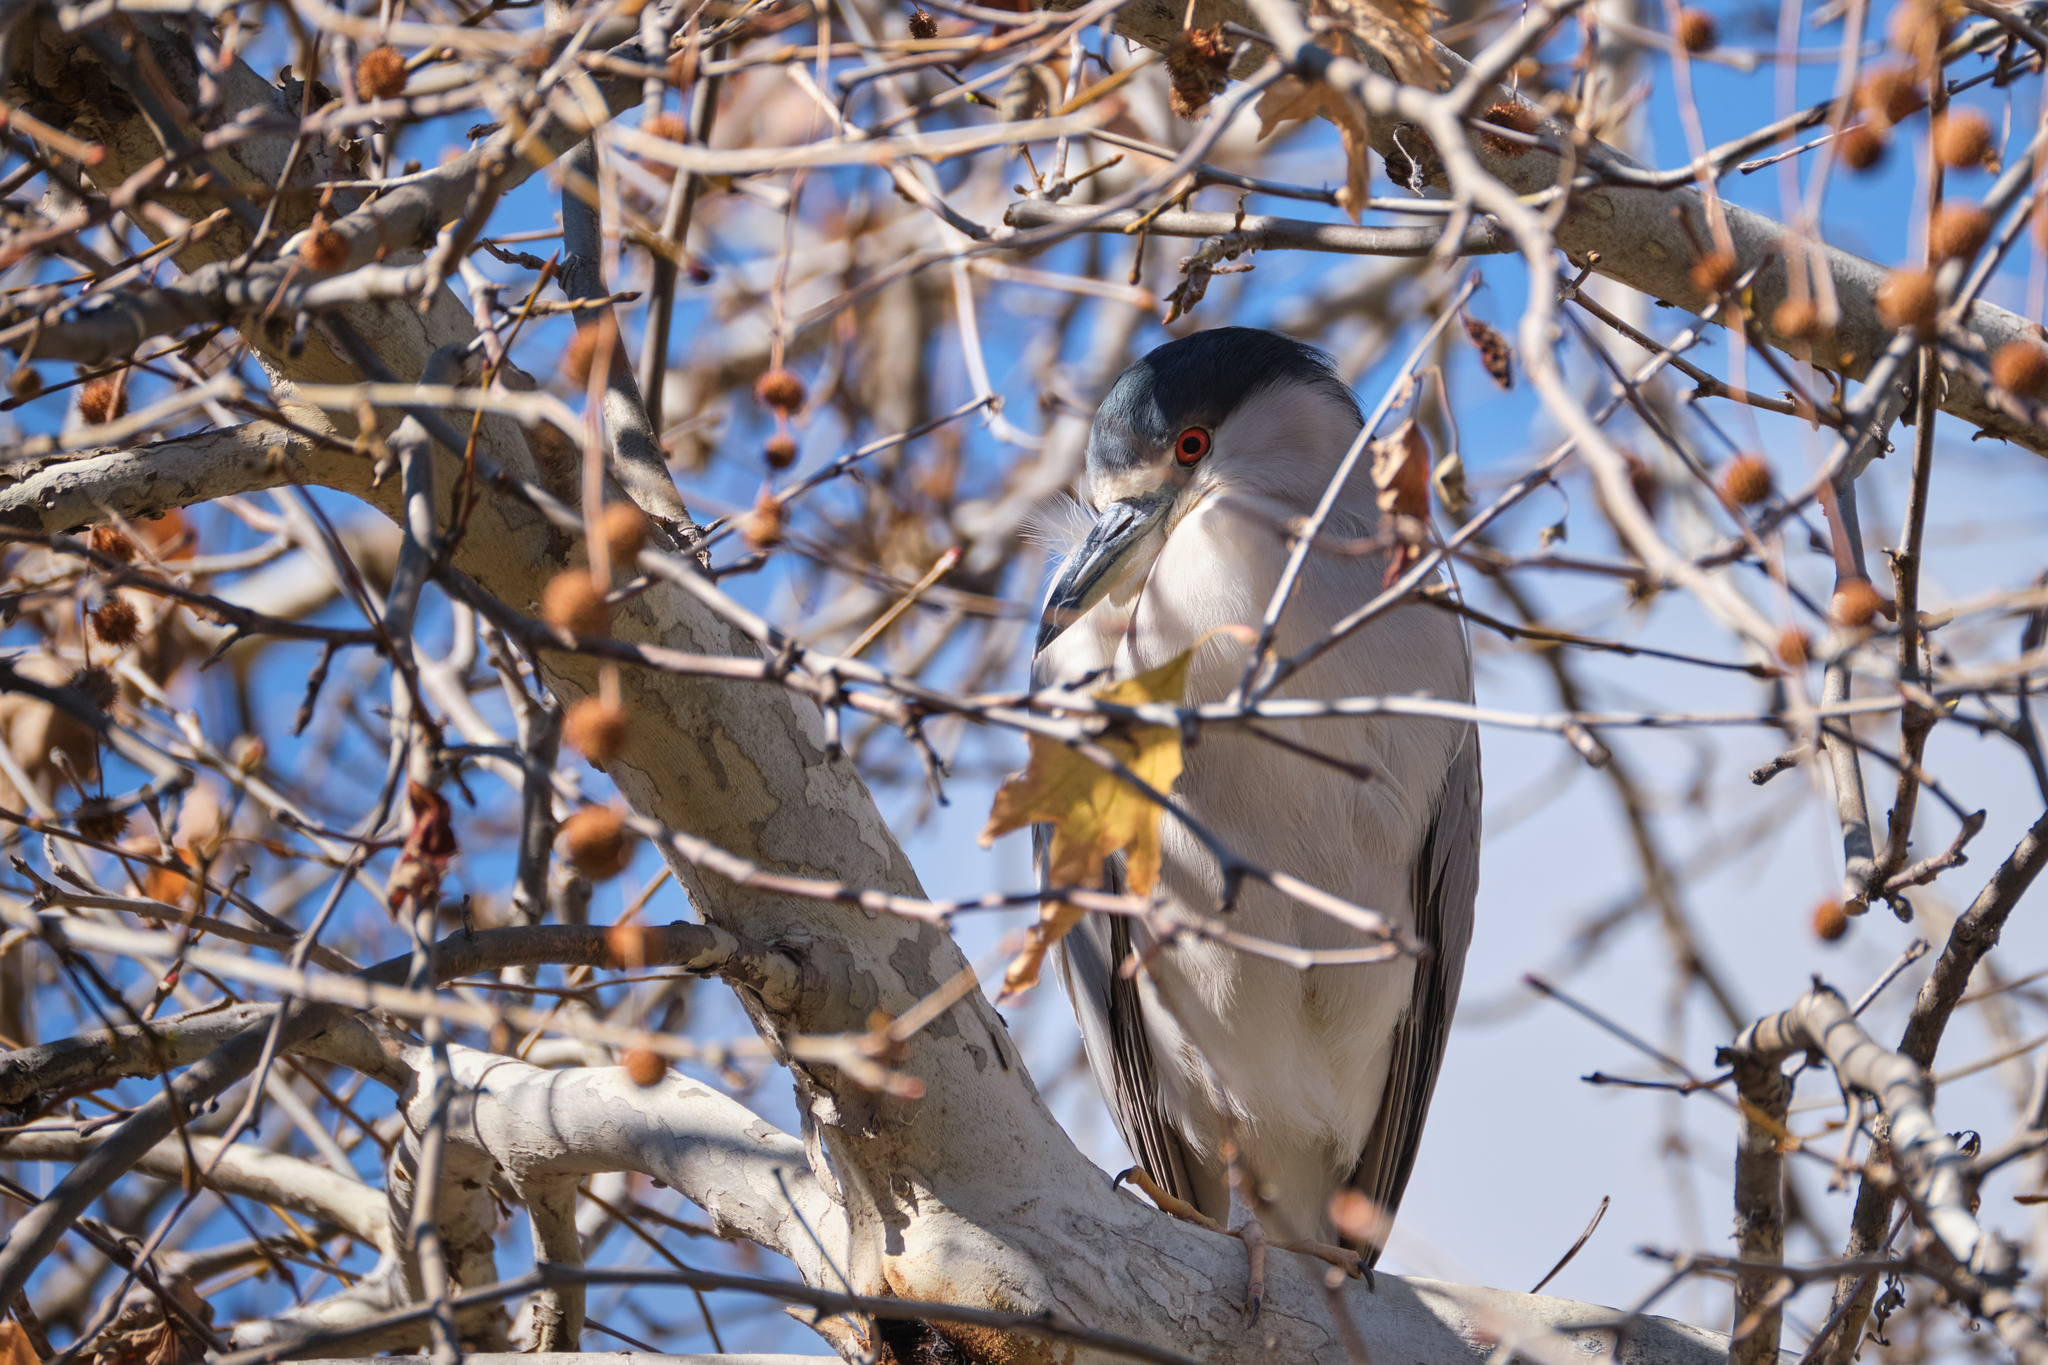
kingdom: Animalia
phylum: Chordata
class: Aves
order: Pelecaniformes
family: Ardeidae
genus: Nycticorax
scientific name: Nycticorax nycticorax
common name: Black-crowned night heron
